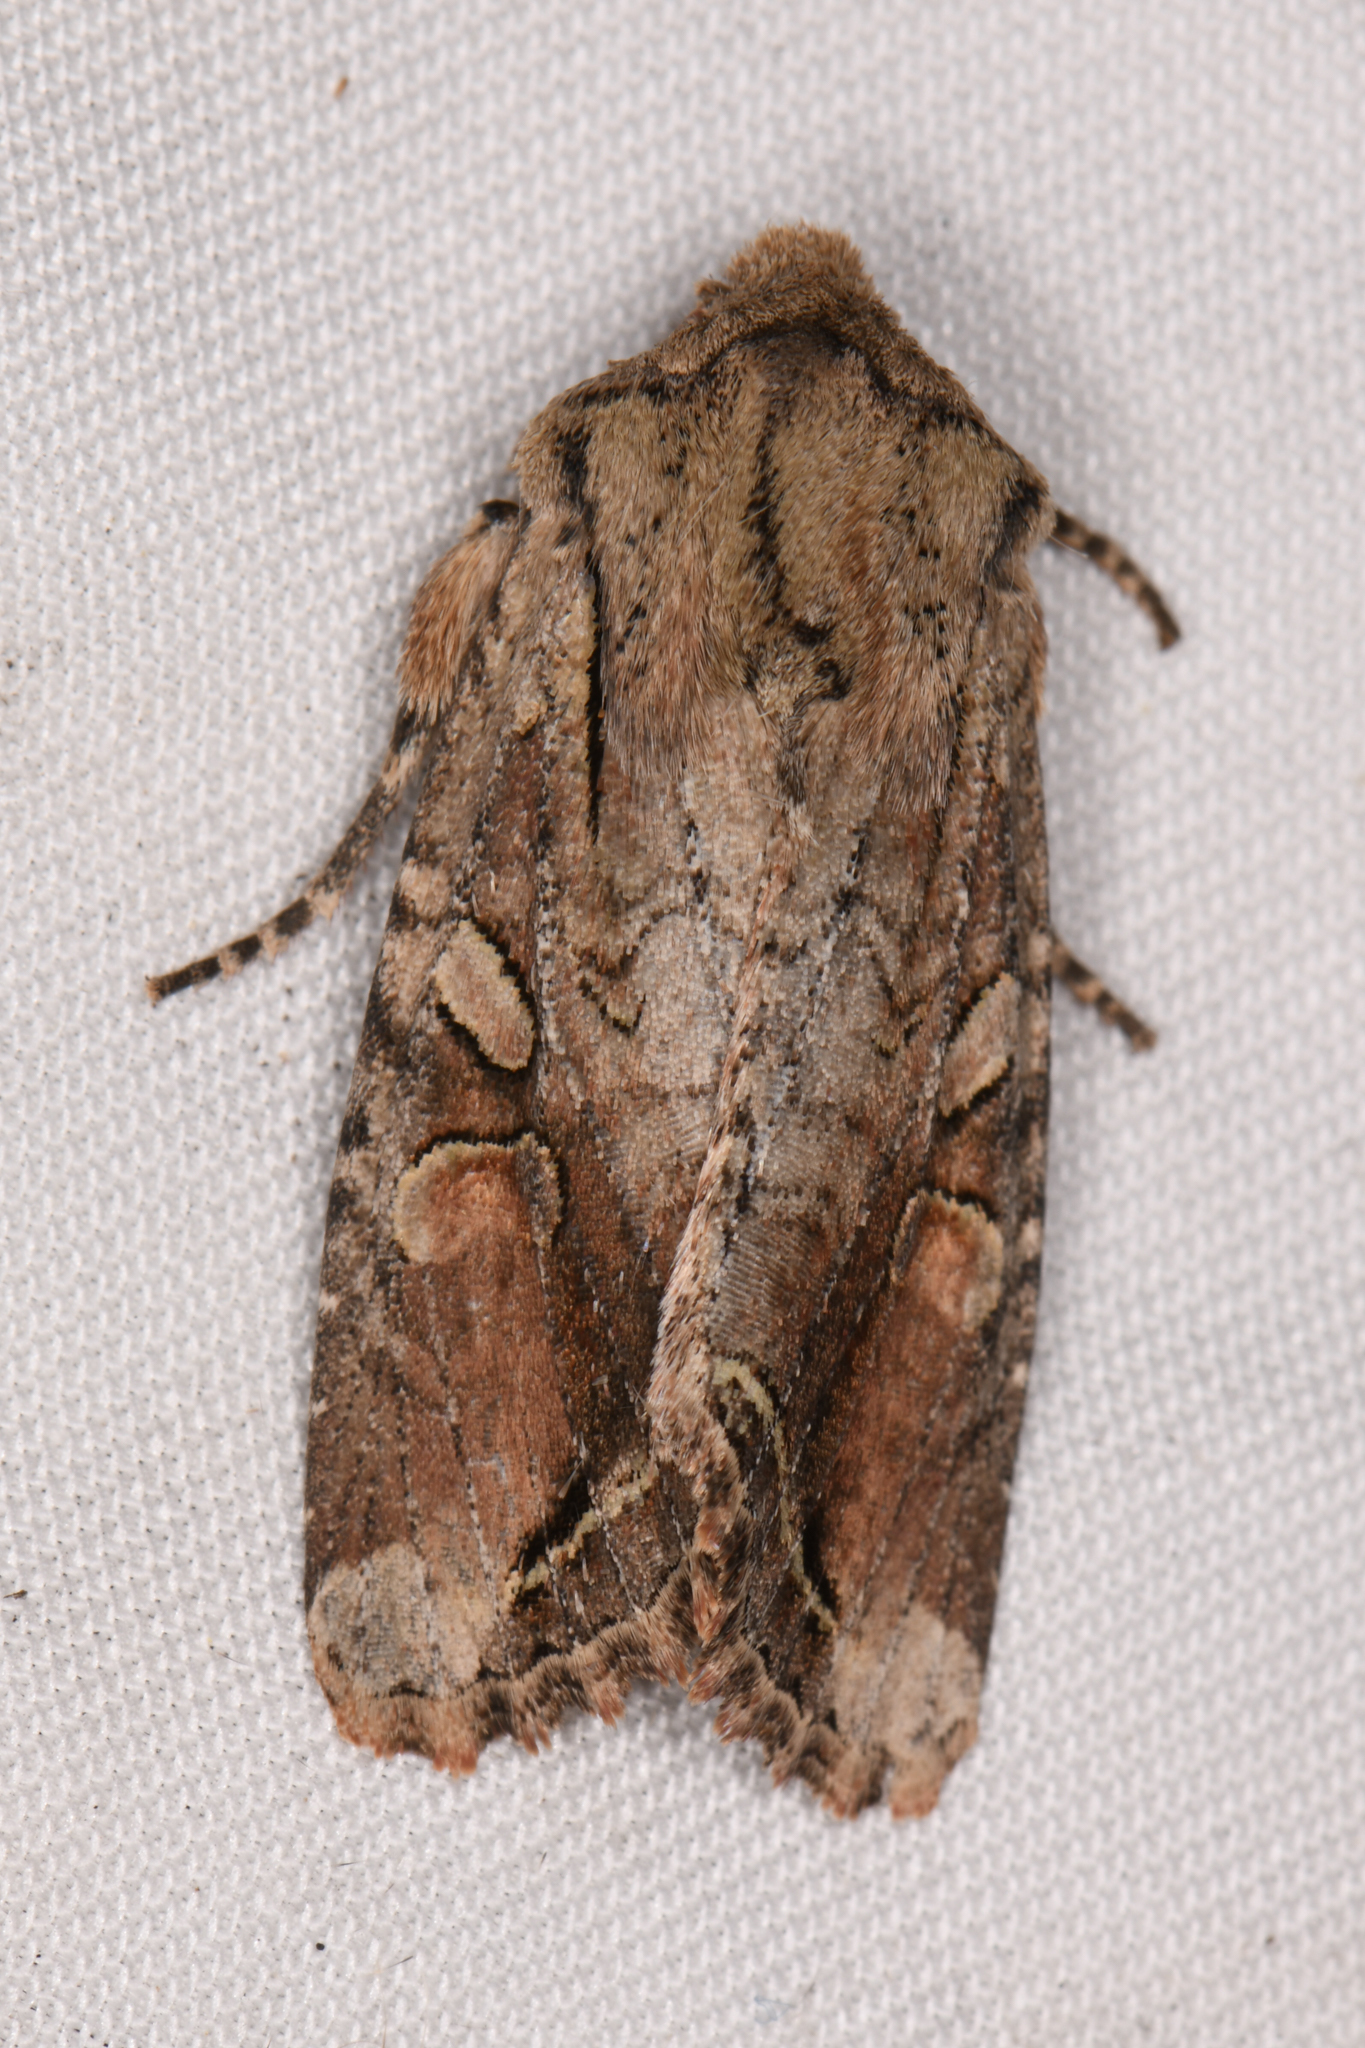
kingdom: Animalia
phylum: Arthropoda
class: Insecta
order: Lepidoptera
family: Noctuidae
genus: Egira
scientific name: Egira rubrica
